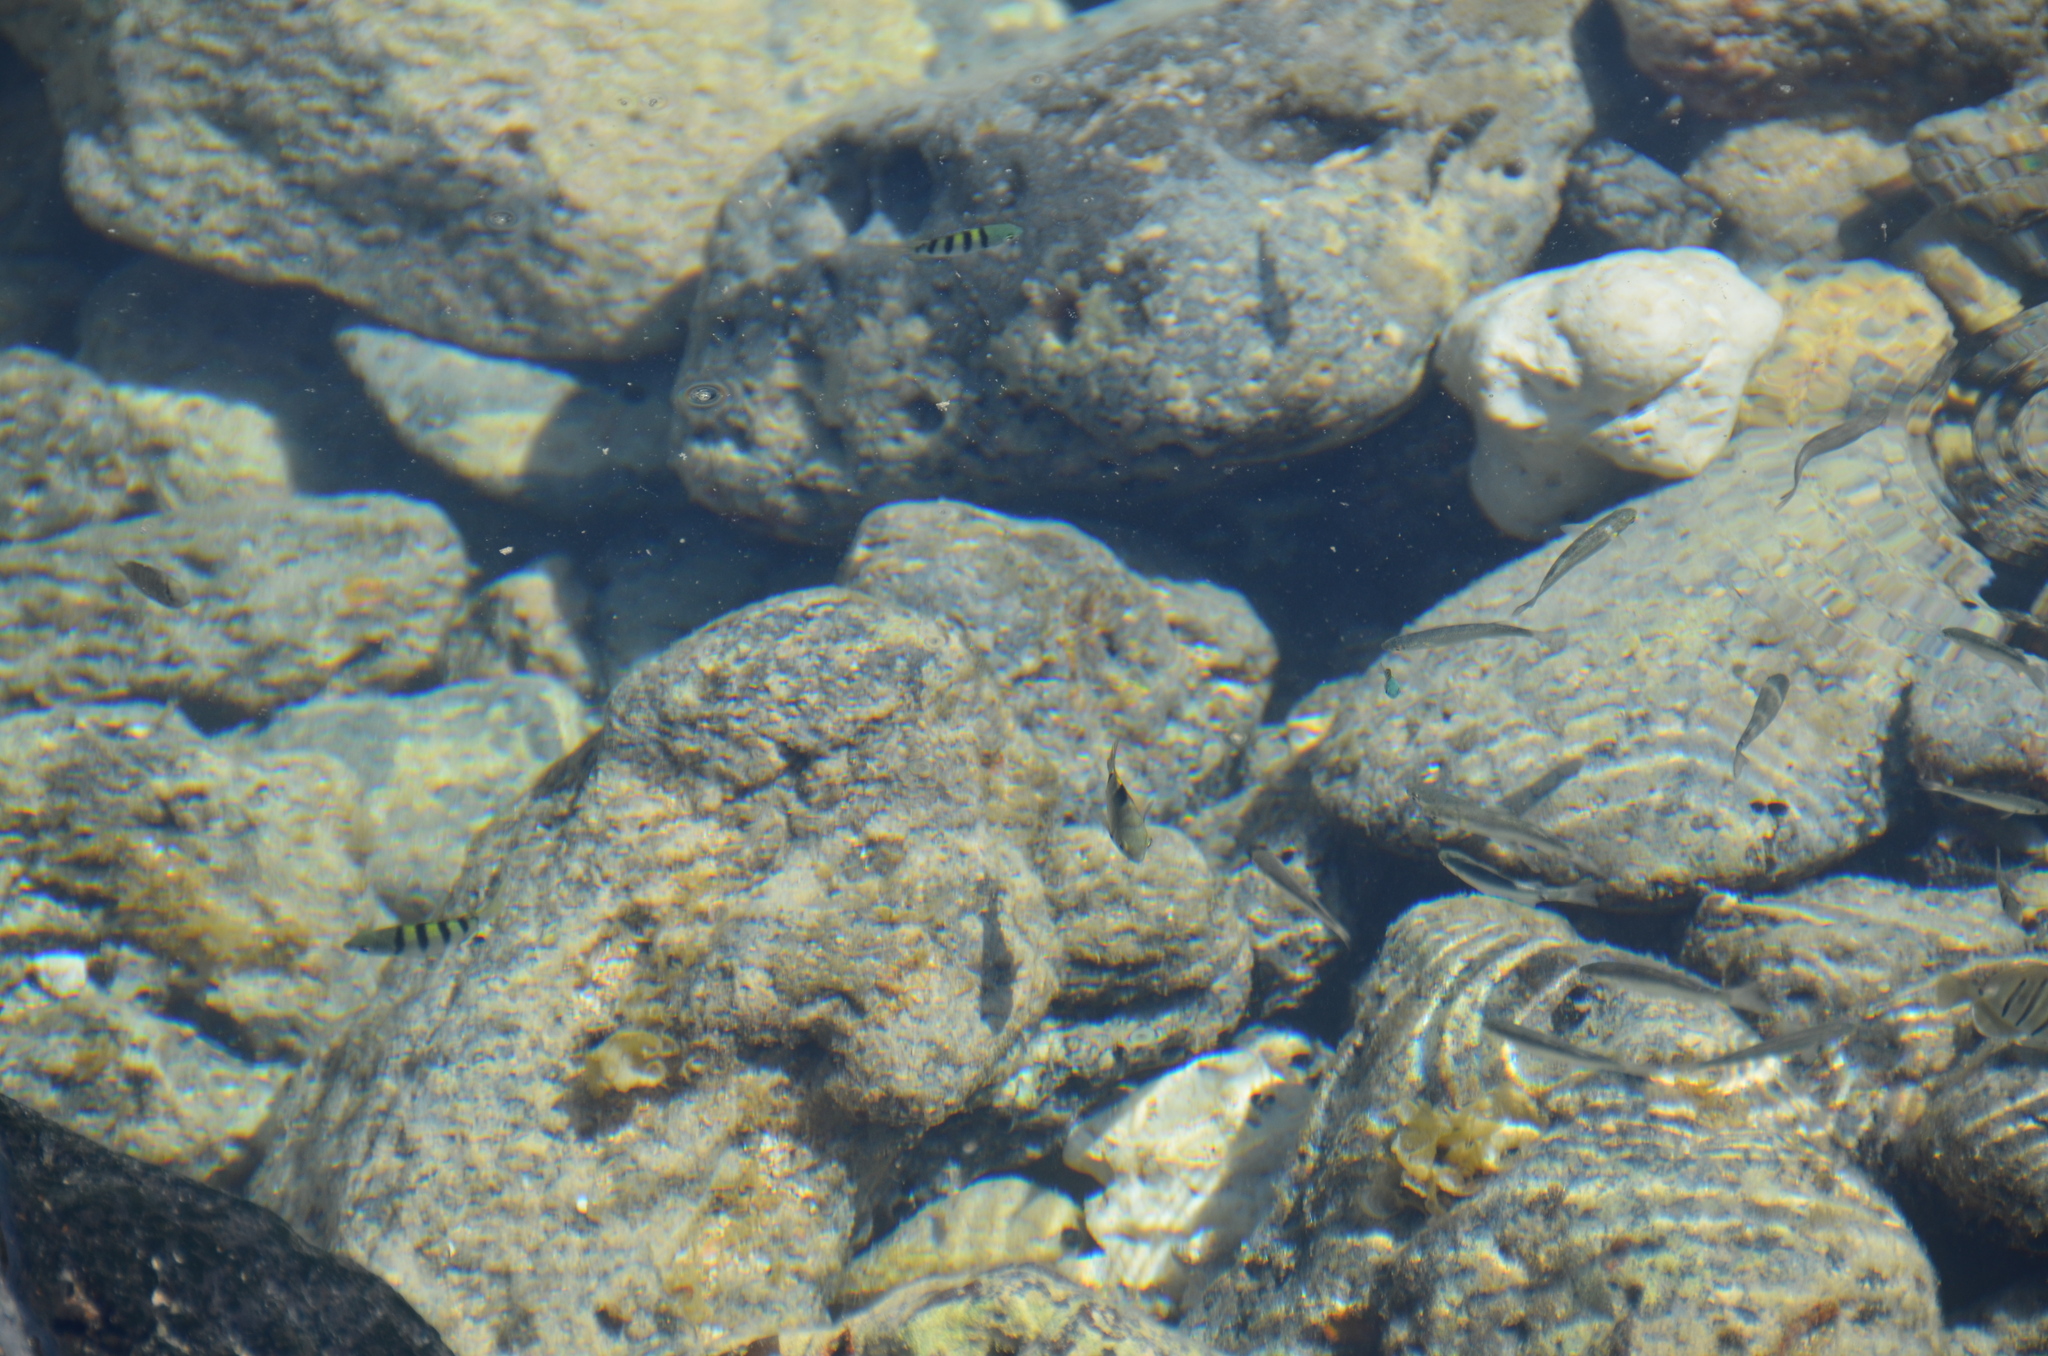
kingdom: Animalia
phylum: Chordata
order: Perciformes
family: Acanthuridae
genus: Acanthurus
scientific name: Acanthurus triostegus
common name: Convict surgeonfish
